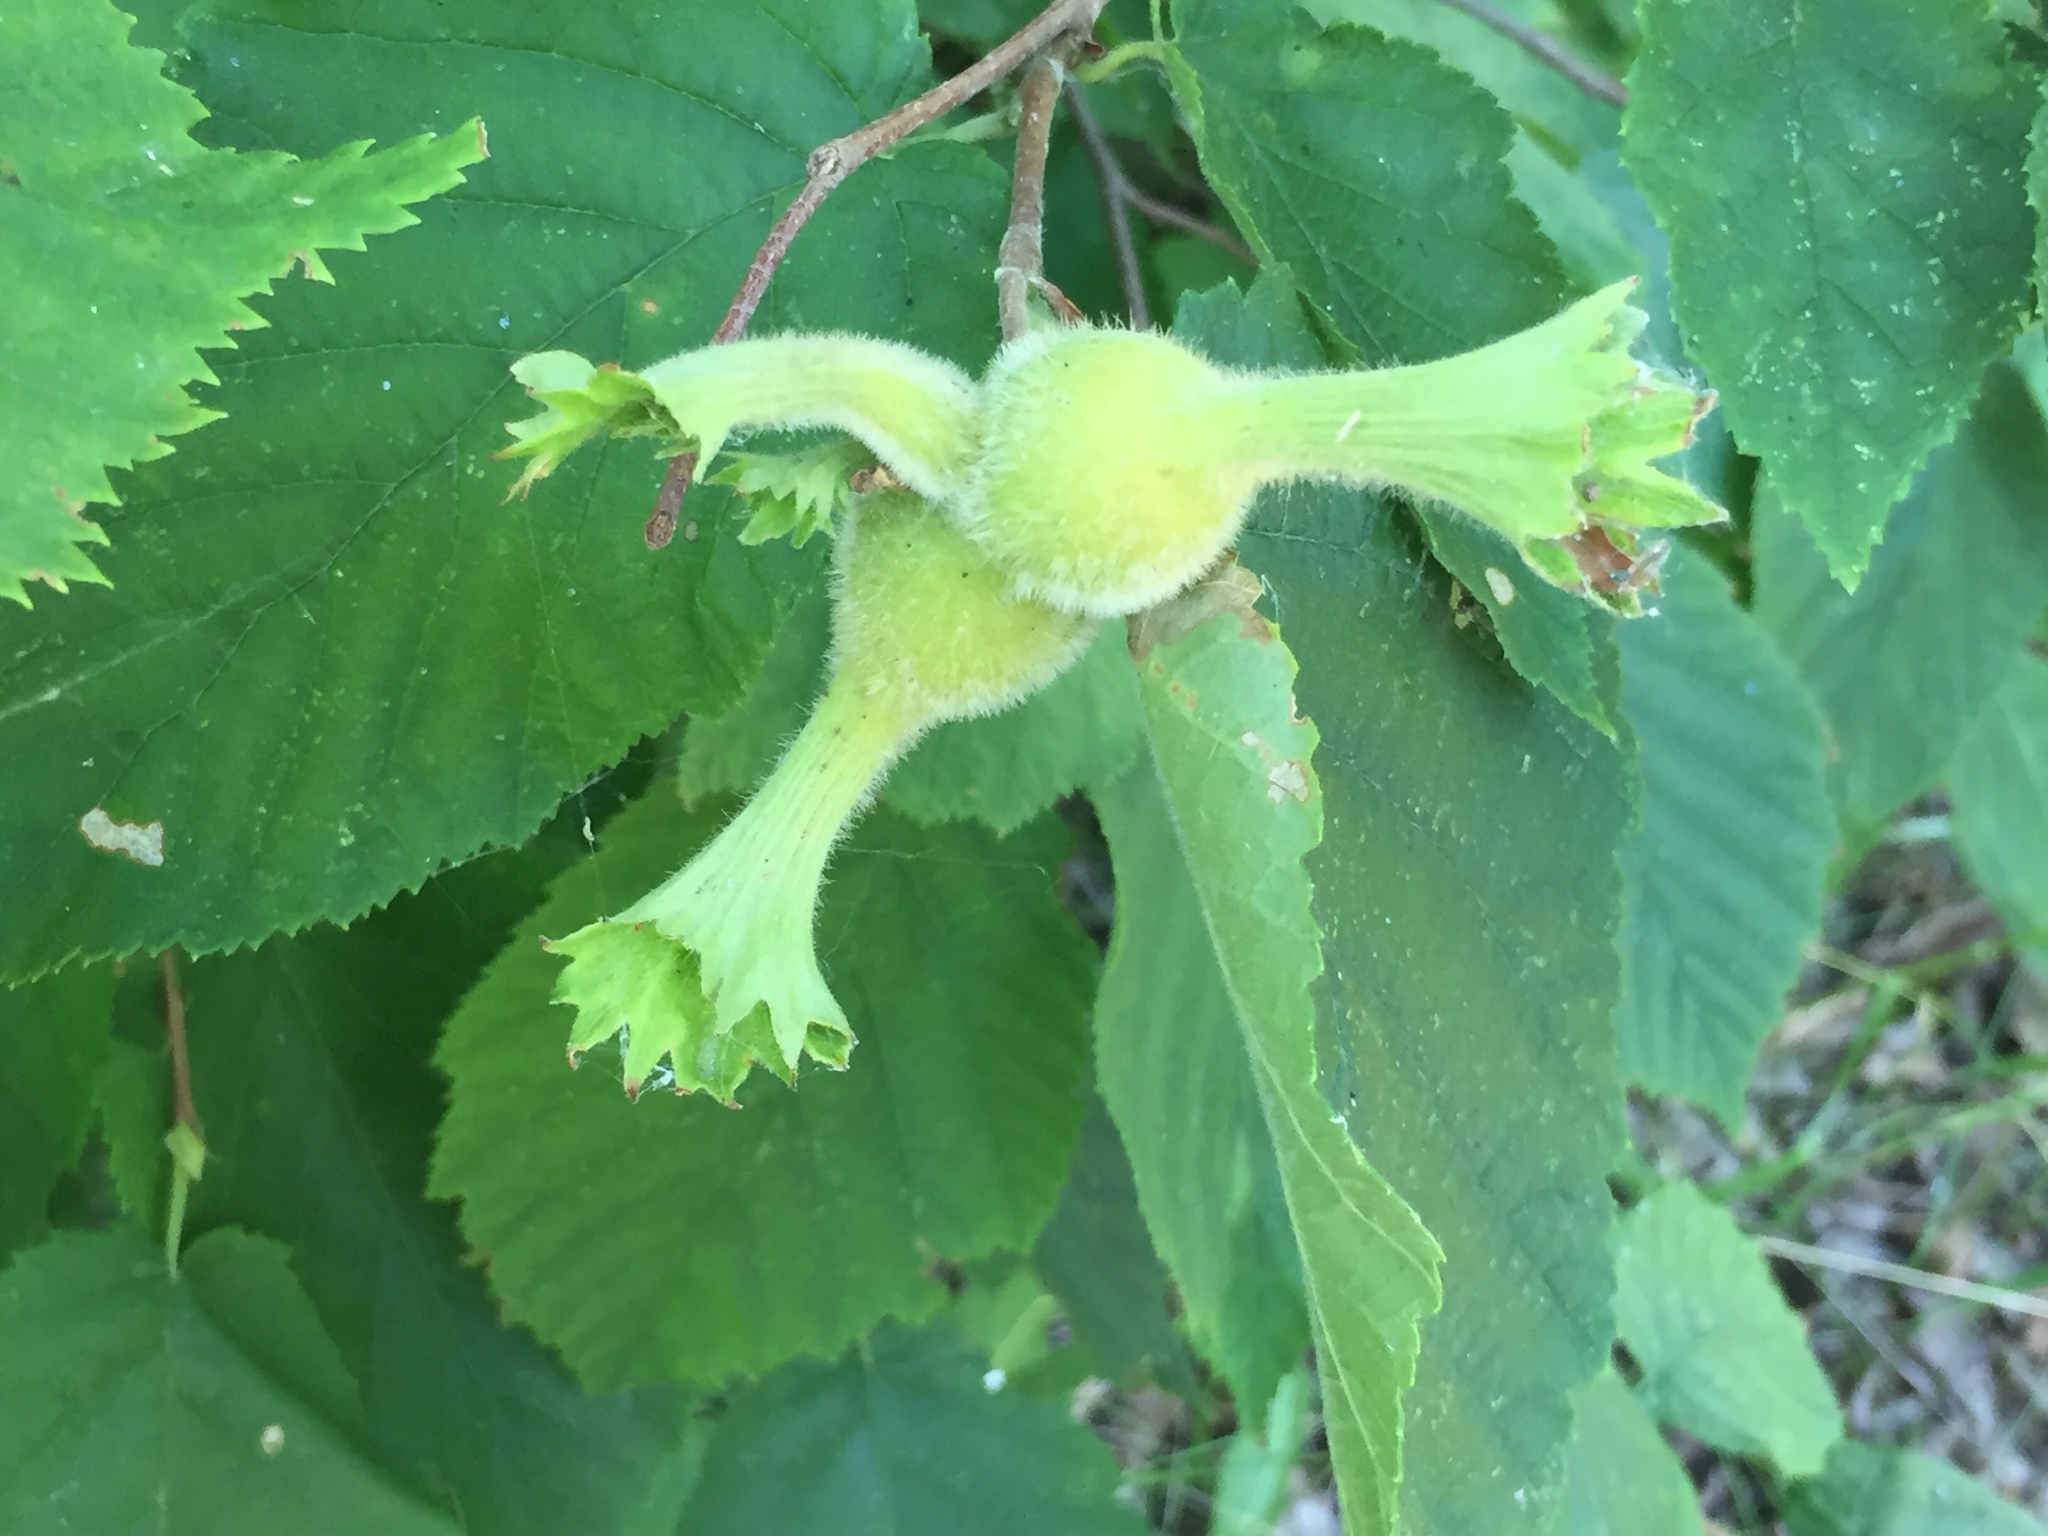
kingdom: Plantae
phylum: Tracheophyta
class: Magnoliopsida
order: Fagales
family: Betulaceae
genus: Corylus
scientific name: Corylus cornuta
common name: Beaked hazel
